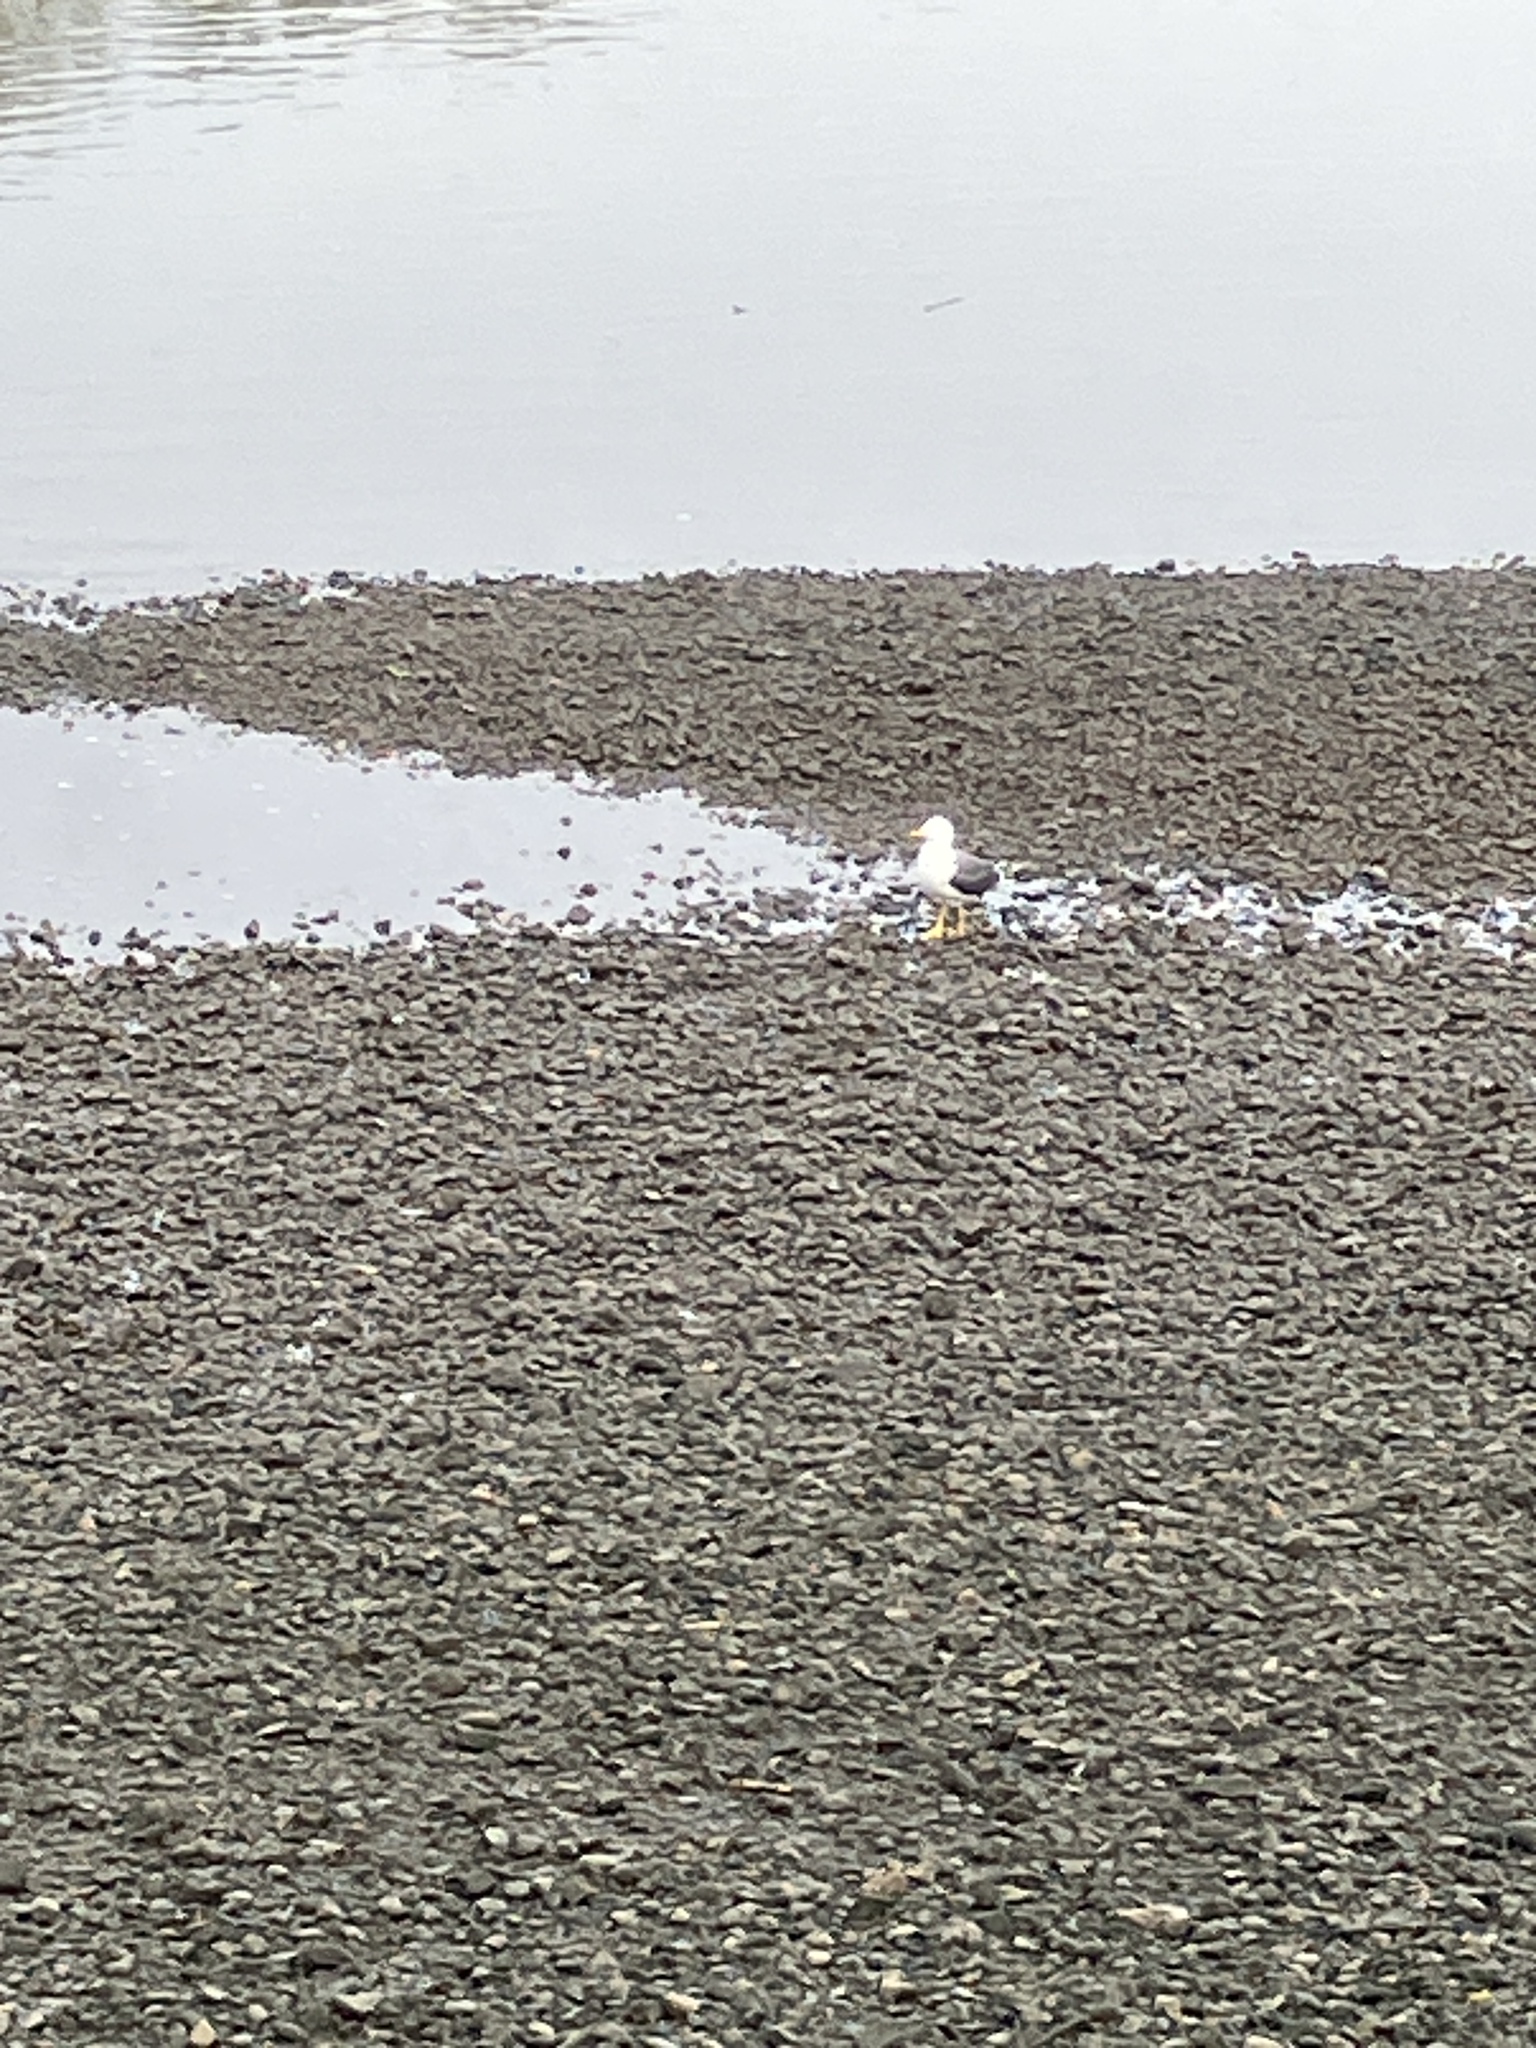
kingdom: Animalia
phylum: Chordata
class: Aves
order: Charadriiformes
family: Laridae
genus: Larus
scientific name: Larus fuscus
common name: Lesser black-backed gull
